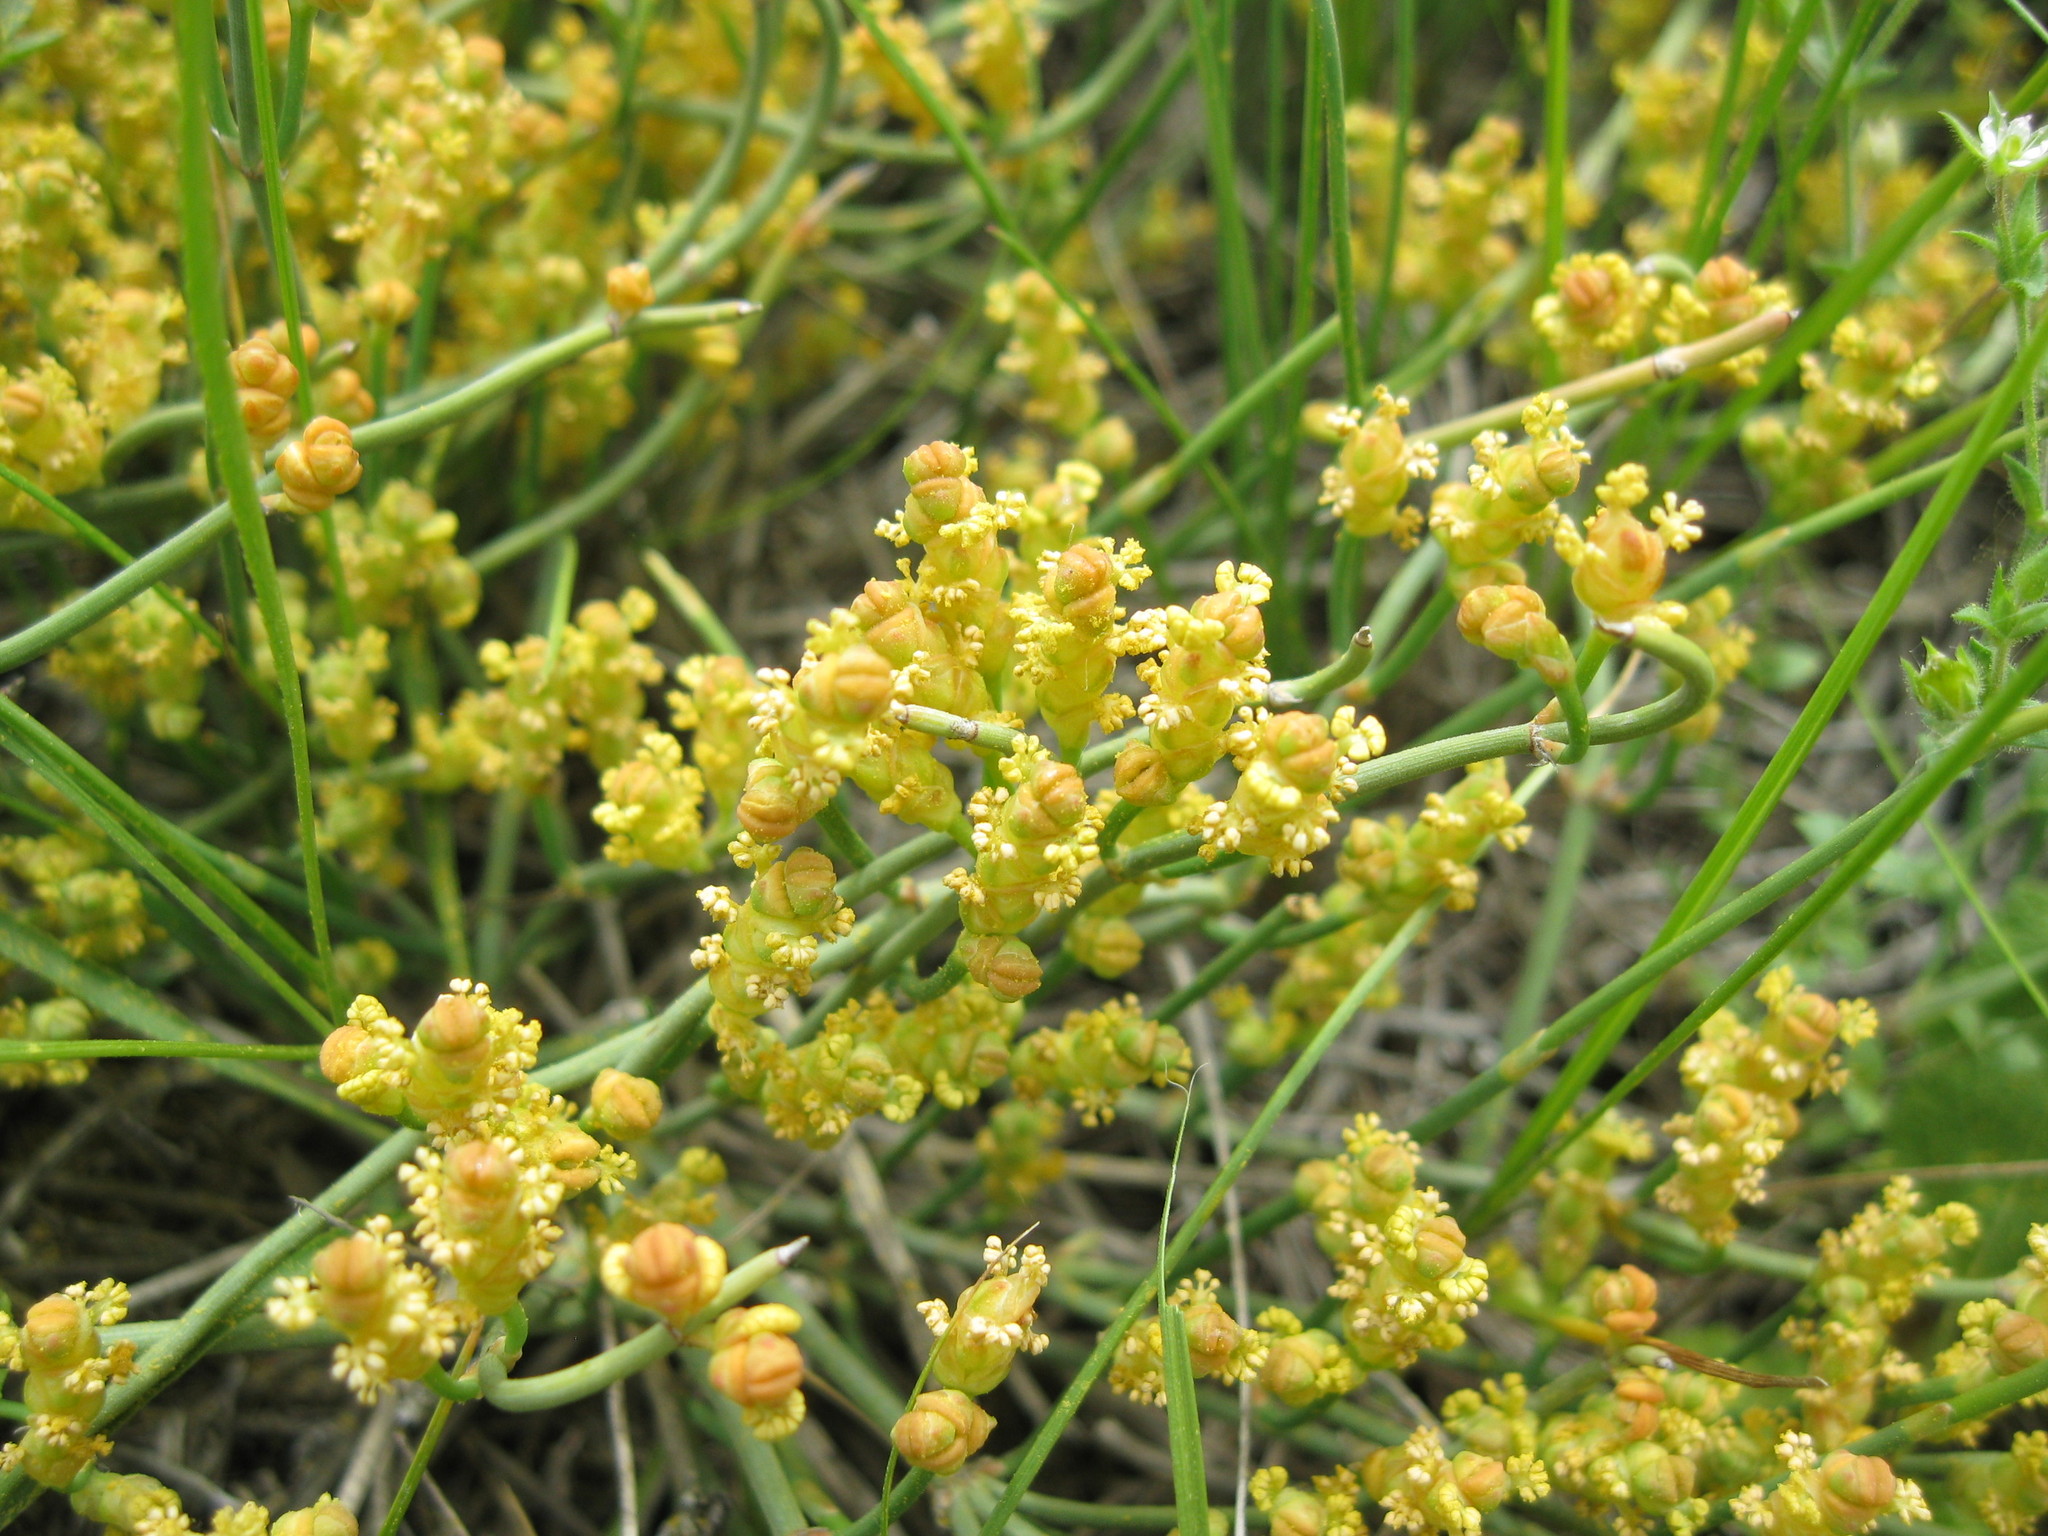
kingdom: Plantae
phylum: Tracheophyta
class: Gnetopsida
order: Ephedrales
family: Ephedraceae
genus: Ephedra
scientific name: Ephedra distachya
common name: Sea grape
